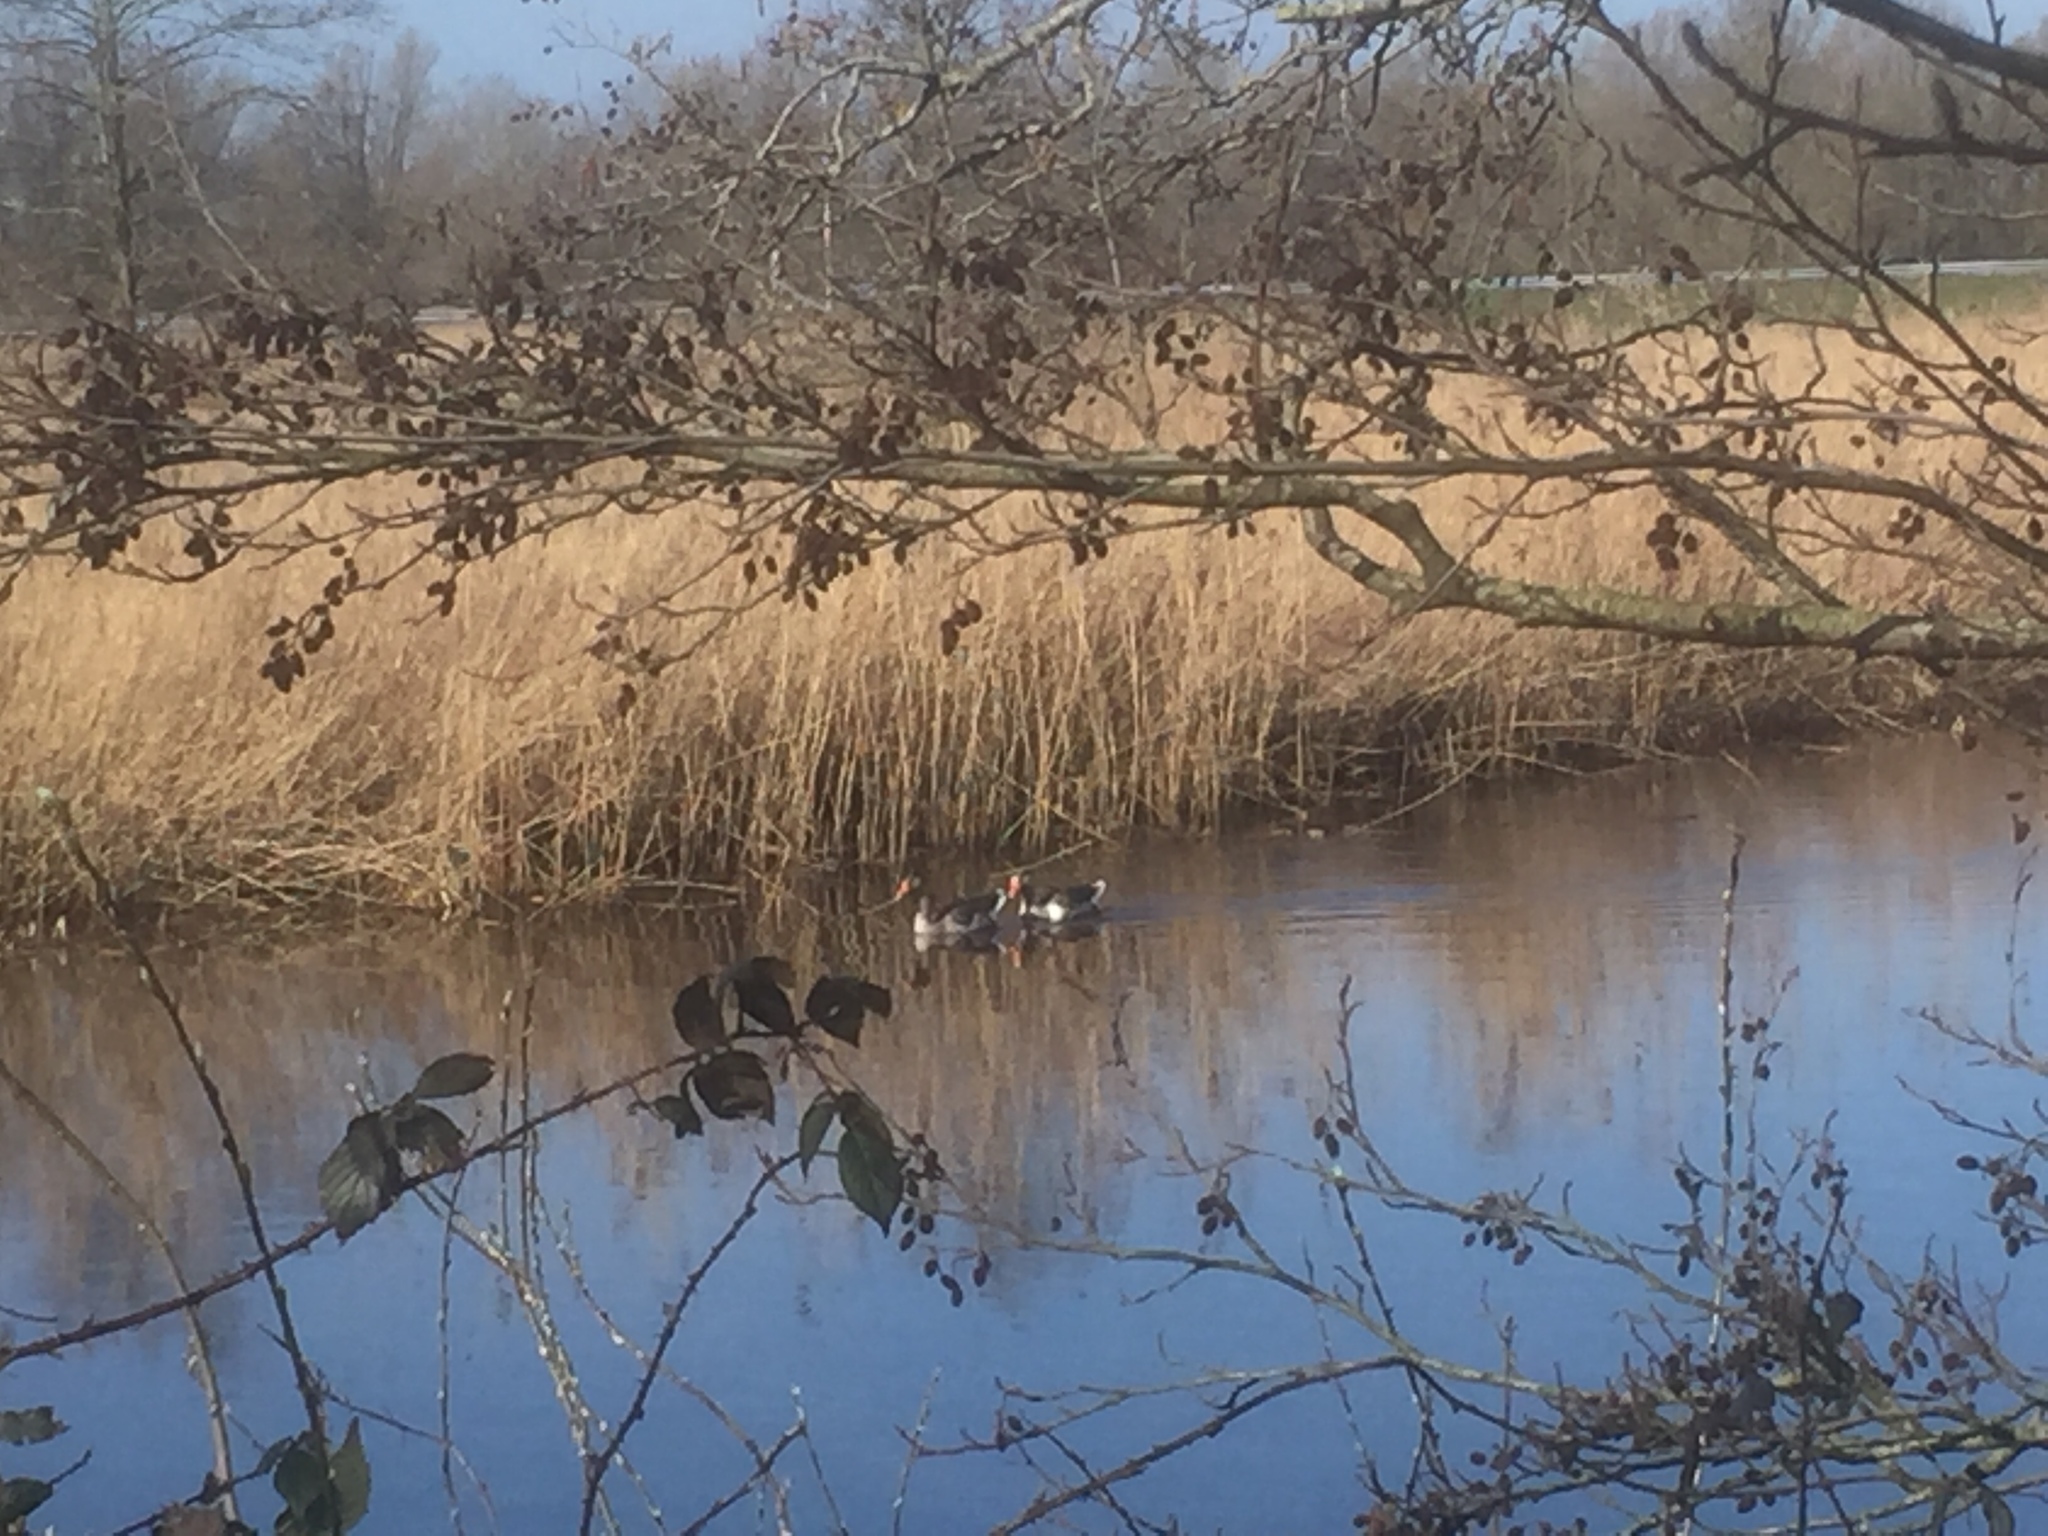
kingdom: Animalia
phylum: Chordata
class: Aves
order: Anseriformes
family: Anatidae
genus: Anser
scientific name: Anser anser
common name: Greylag goose
